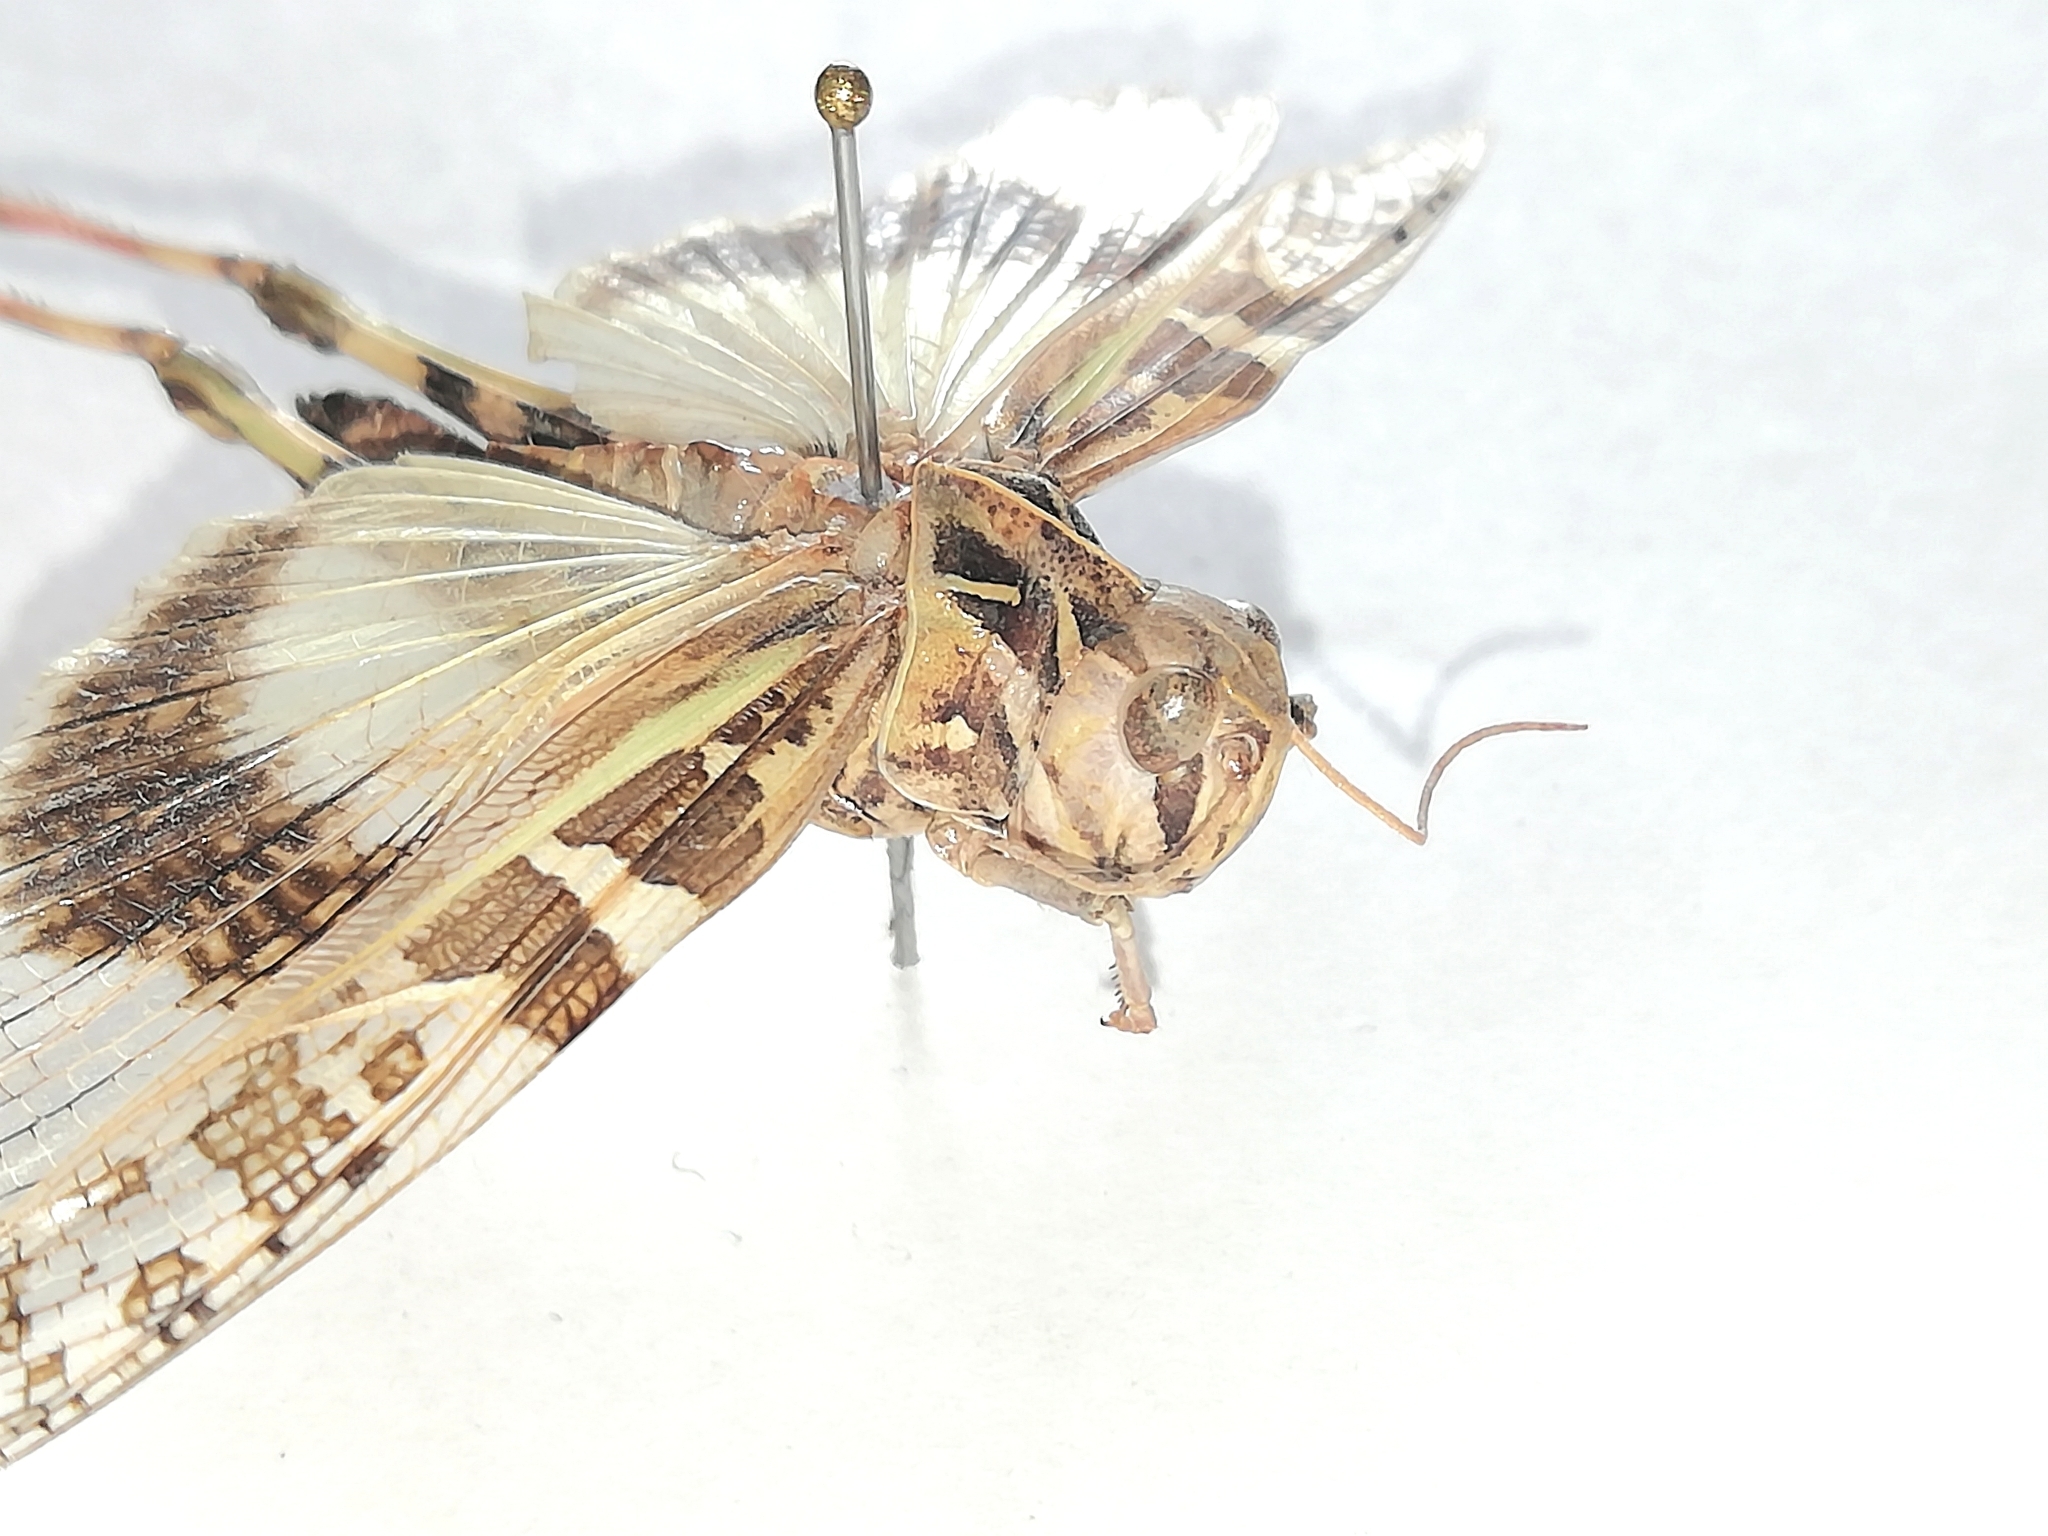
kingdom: Animalia
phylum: Arthropoda
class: Insecta
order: Orthoptera
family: Acrididae
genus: Oedaleus
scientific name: Oedaleus decorus
